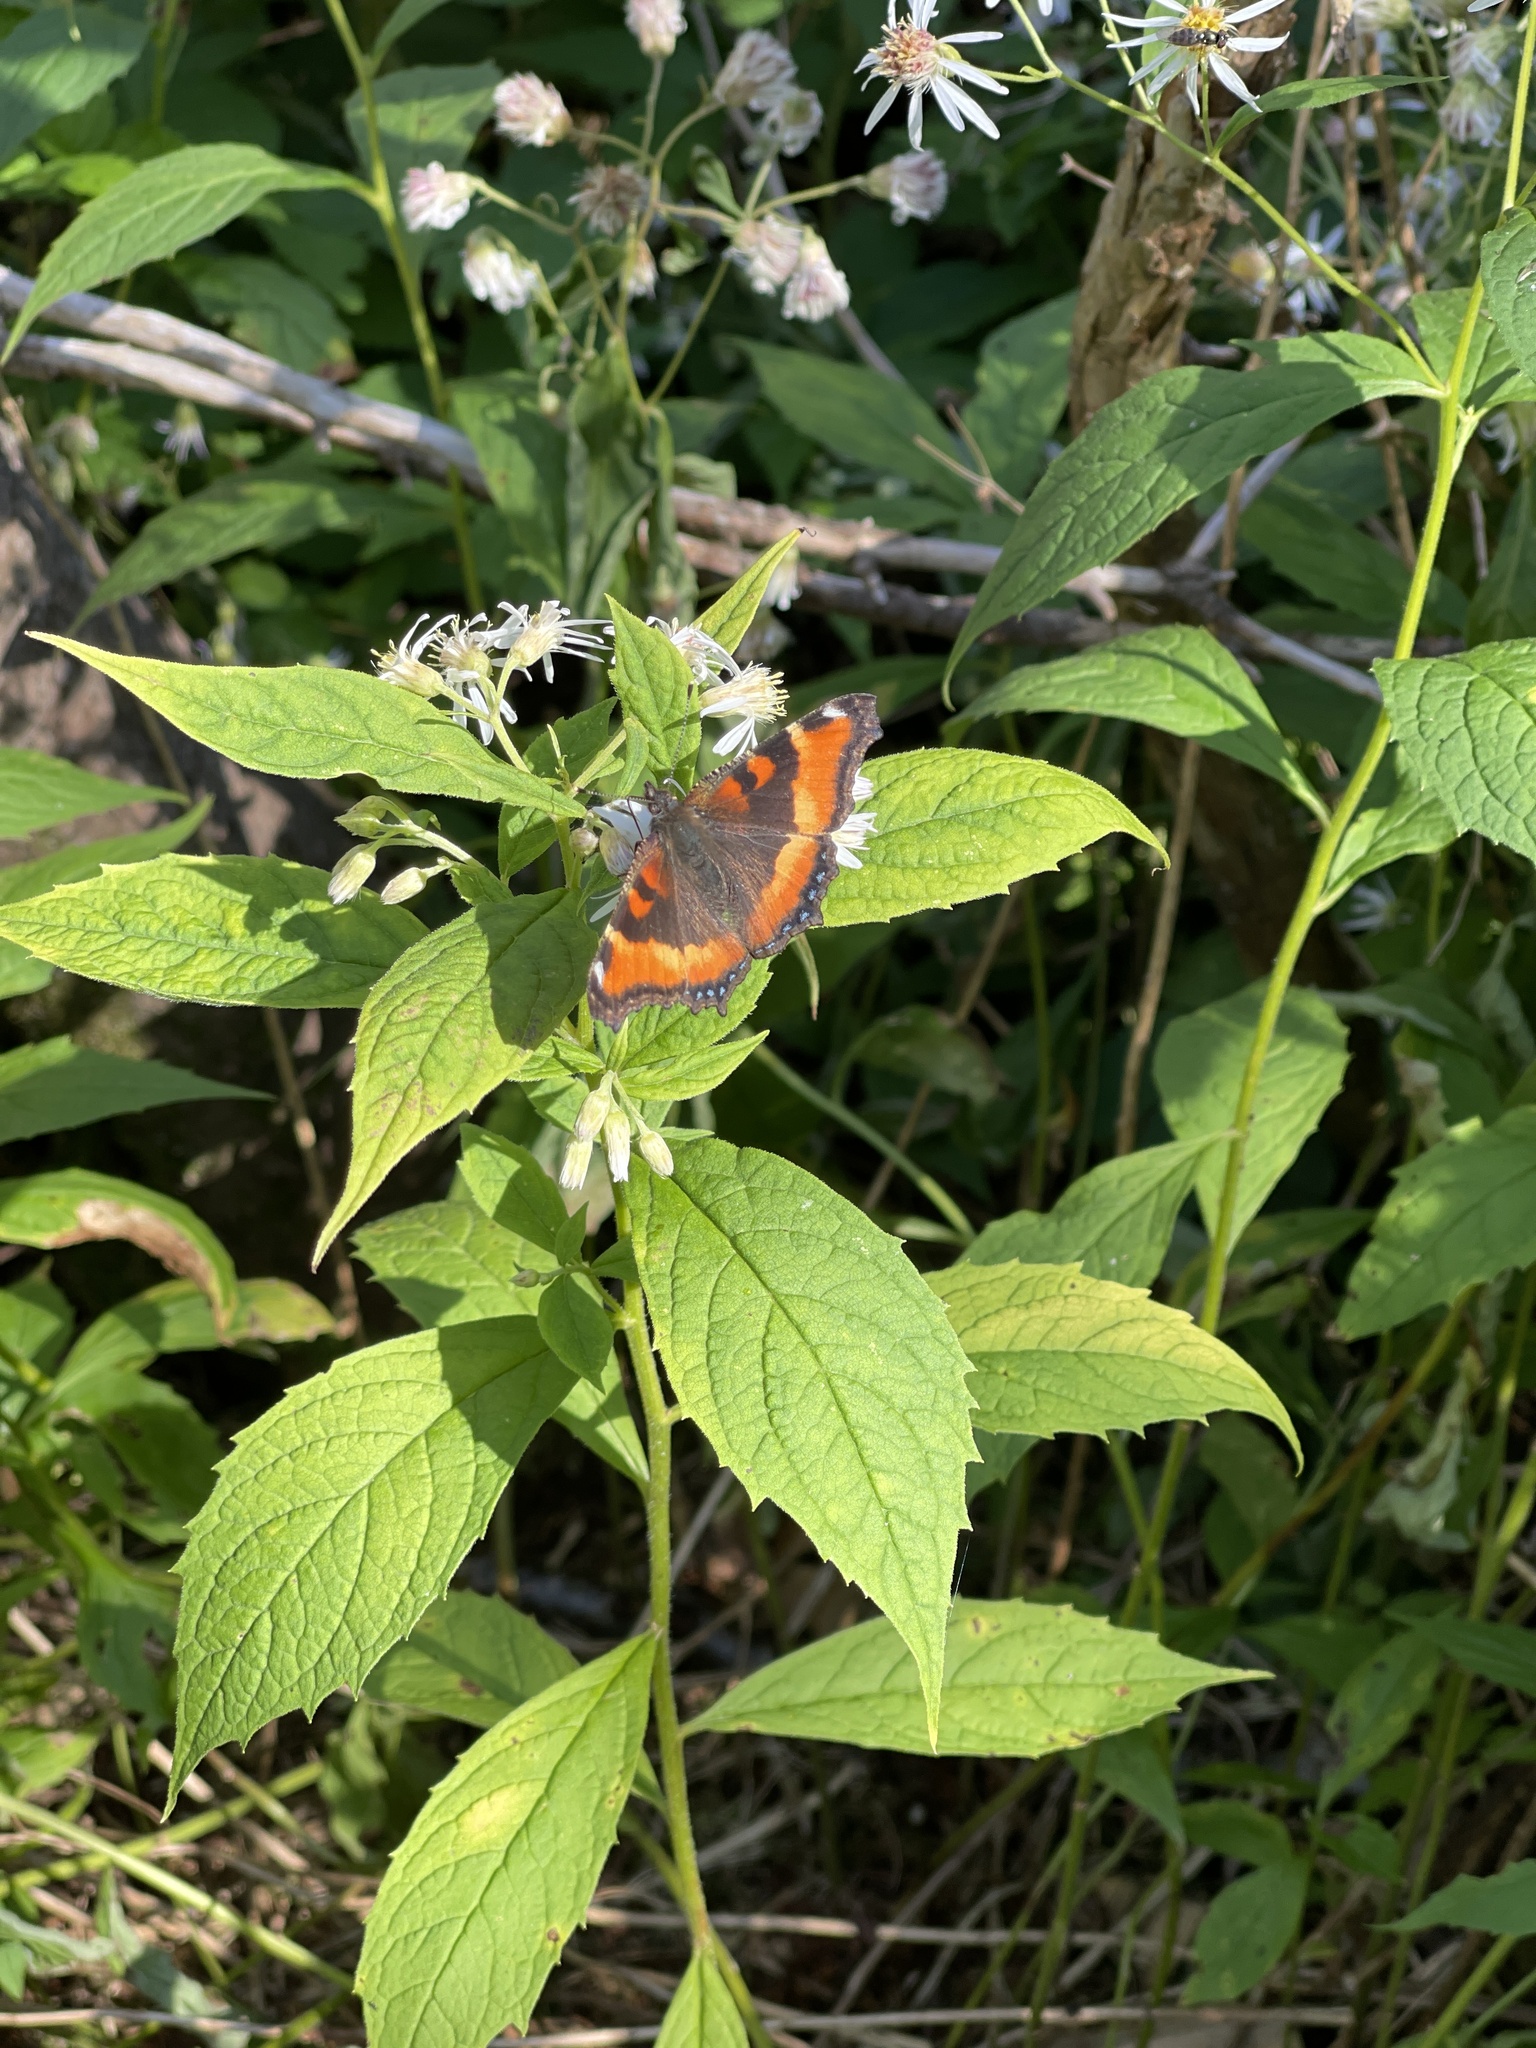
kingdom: Animalia
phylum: Arthropoda
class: Insecta
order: Lepidoptera
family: Nymphalidae
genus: Aglais
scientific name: Aglais milberti
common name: Milbert's tortoiseshell
